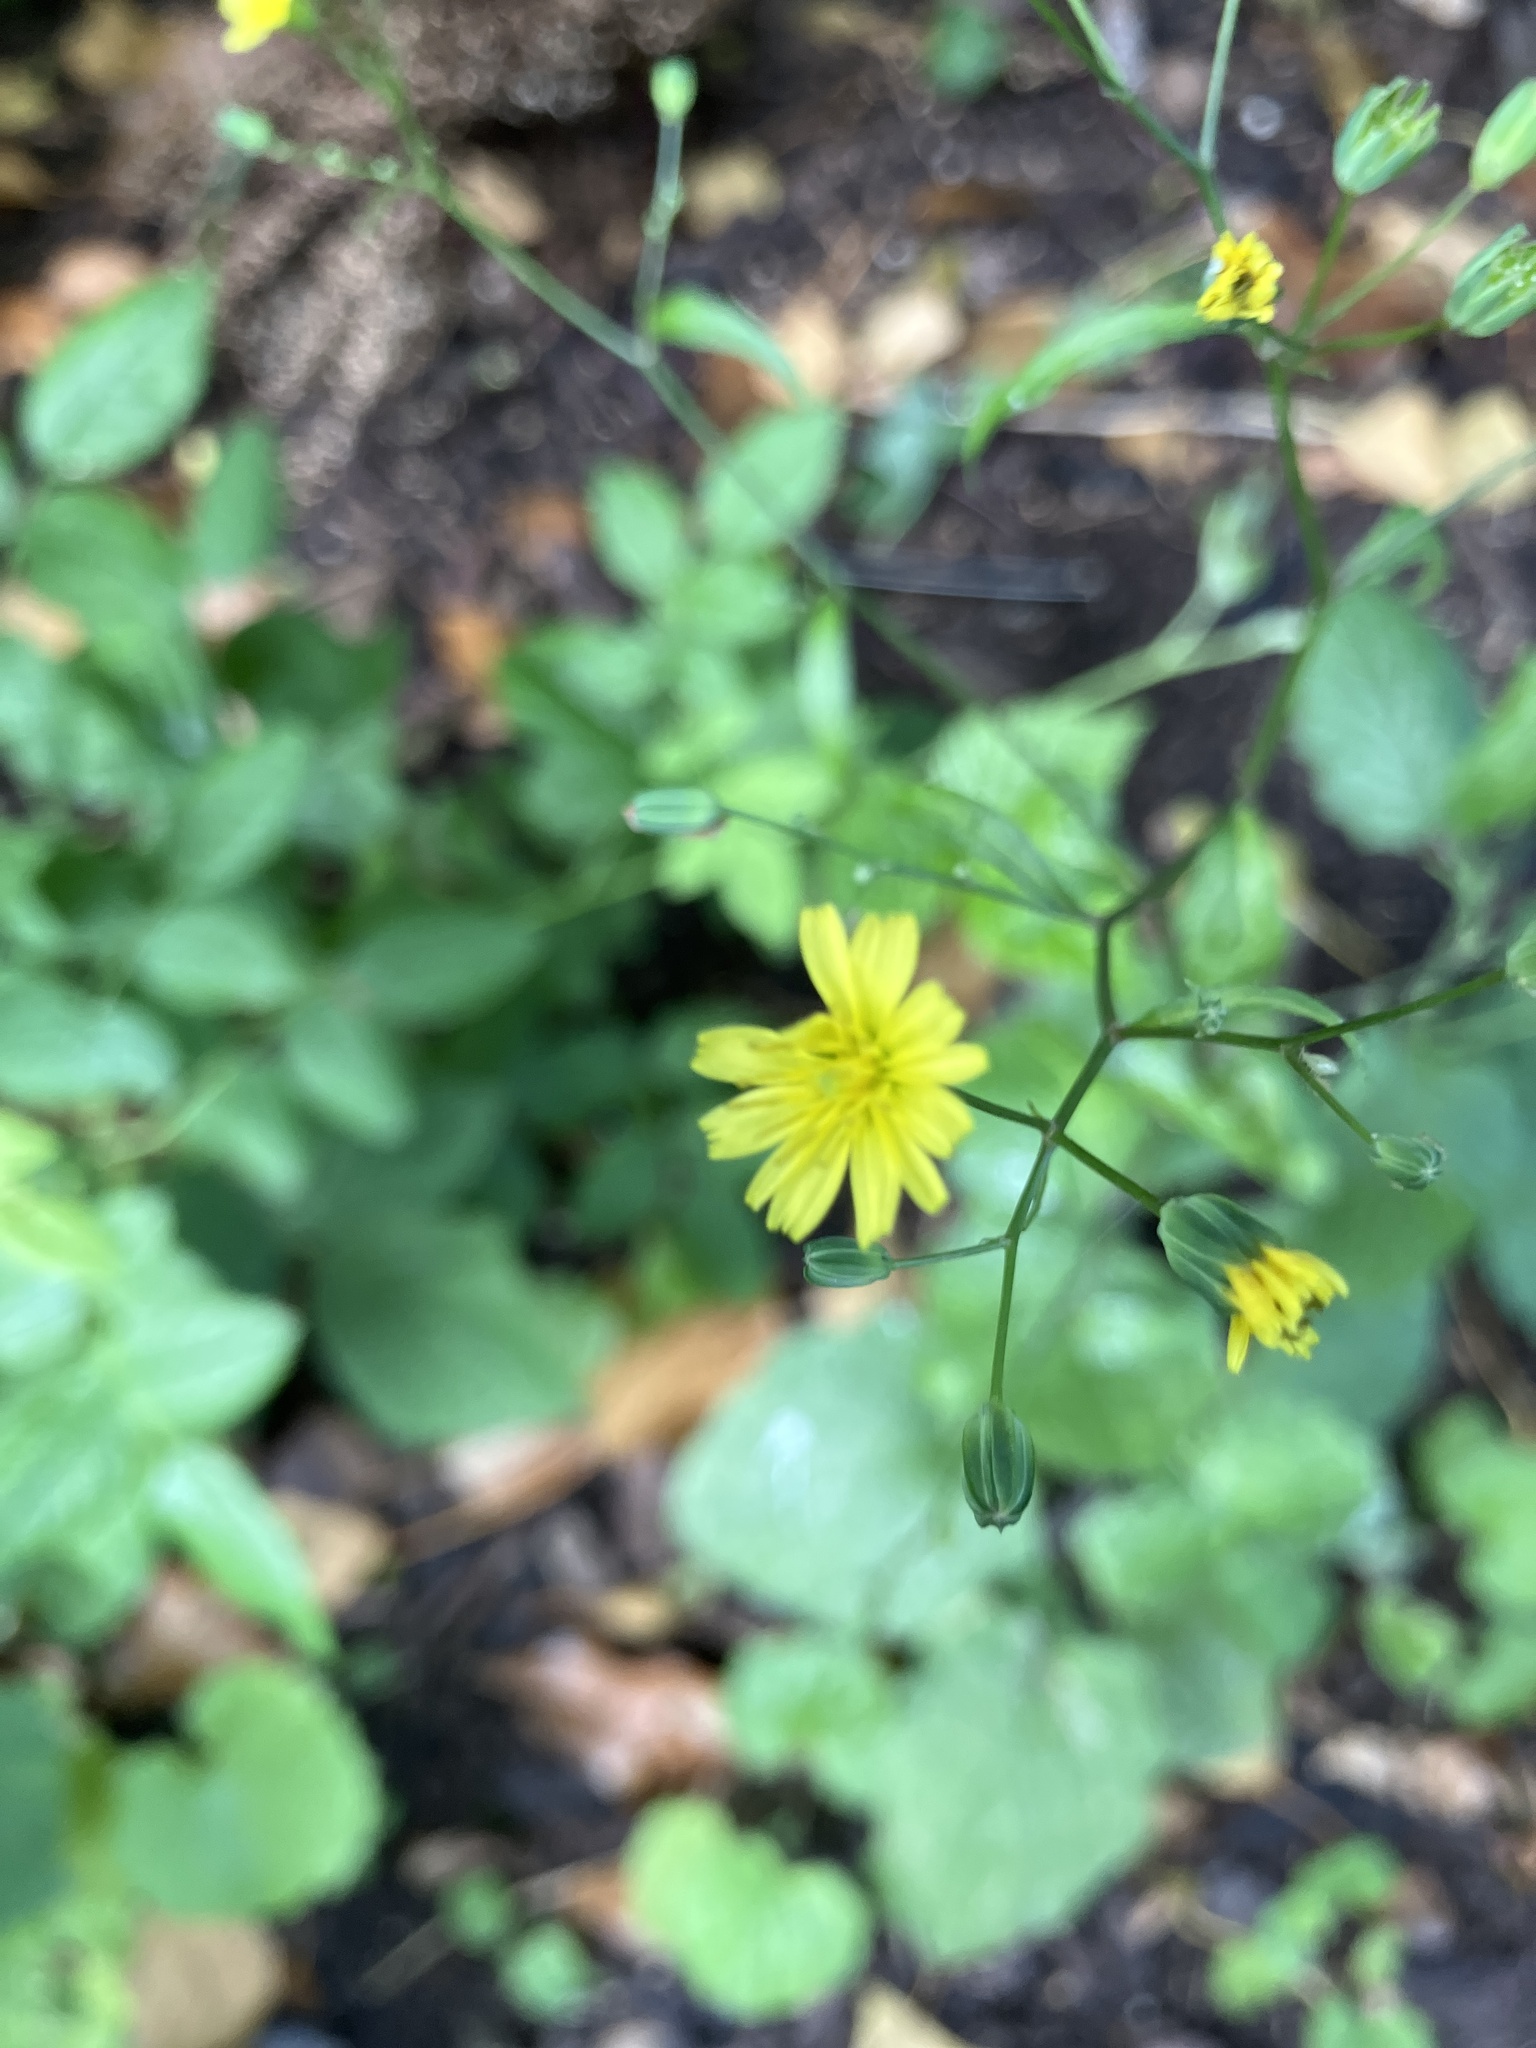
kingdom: Plantae
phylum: Tracheophyta
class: Magnoliopsida
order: Asterales
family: Asteraceae
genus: Lapsana
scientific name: Lapsana communis
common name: Nipplewort
